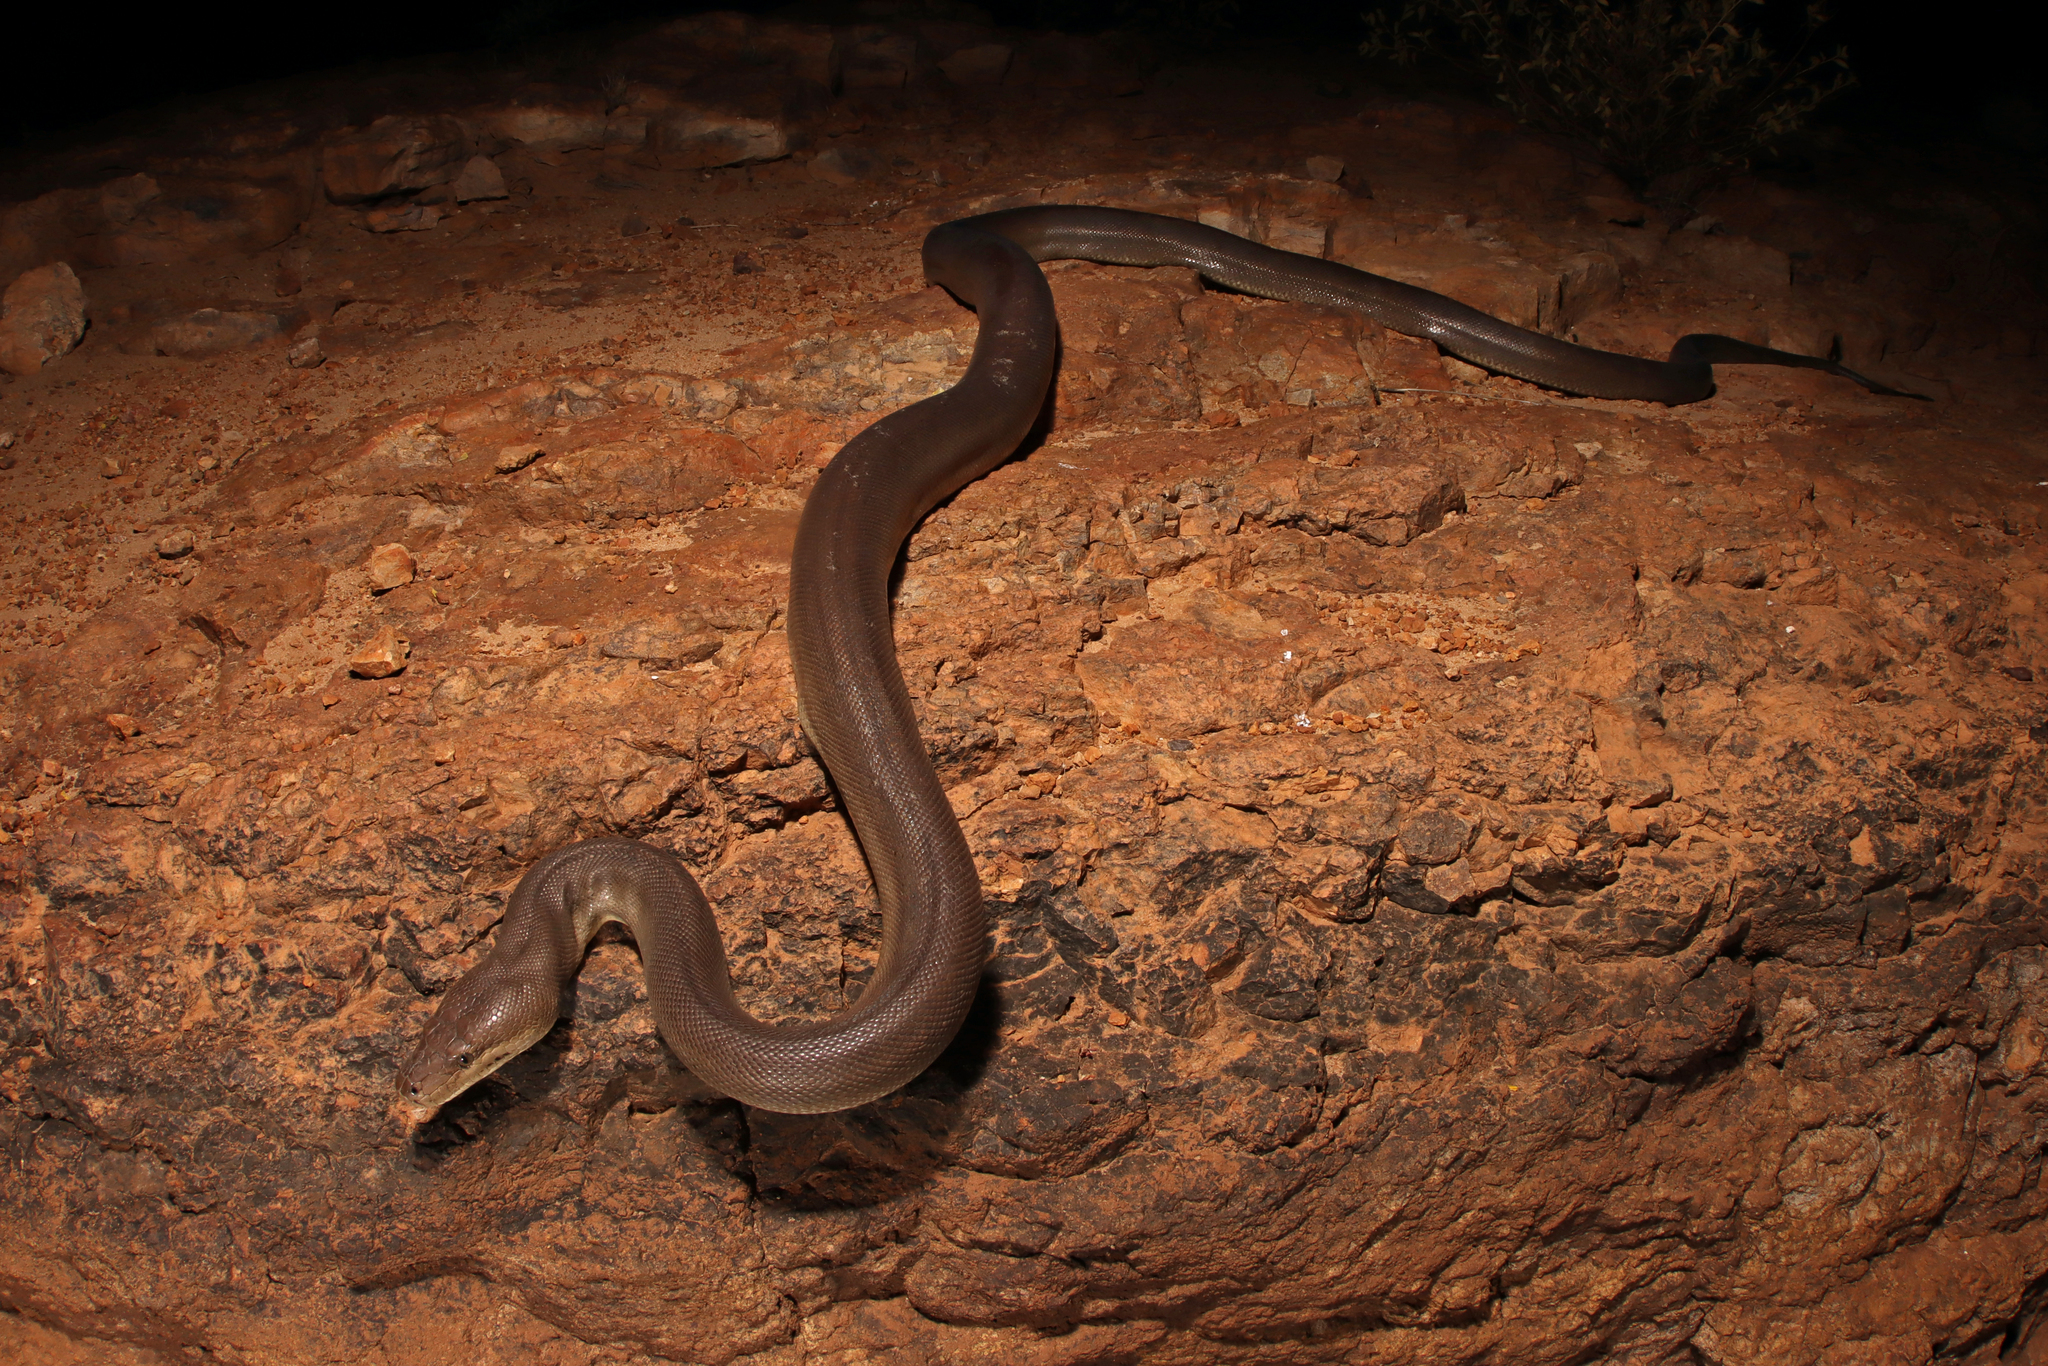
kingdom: Animalia
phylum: Chordata
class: Squamata
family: Pythonidae
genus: Liasis
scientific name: Liasis olivaceus
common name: Olive python
